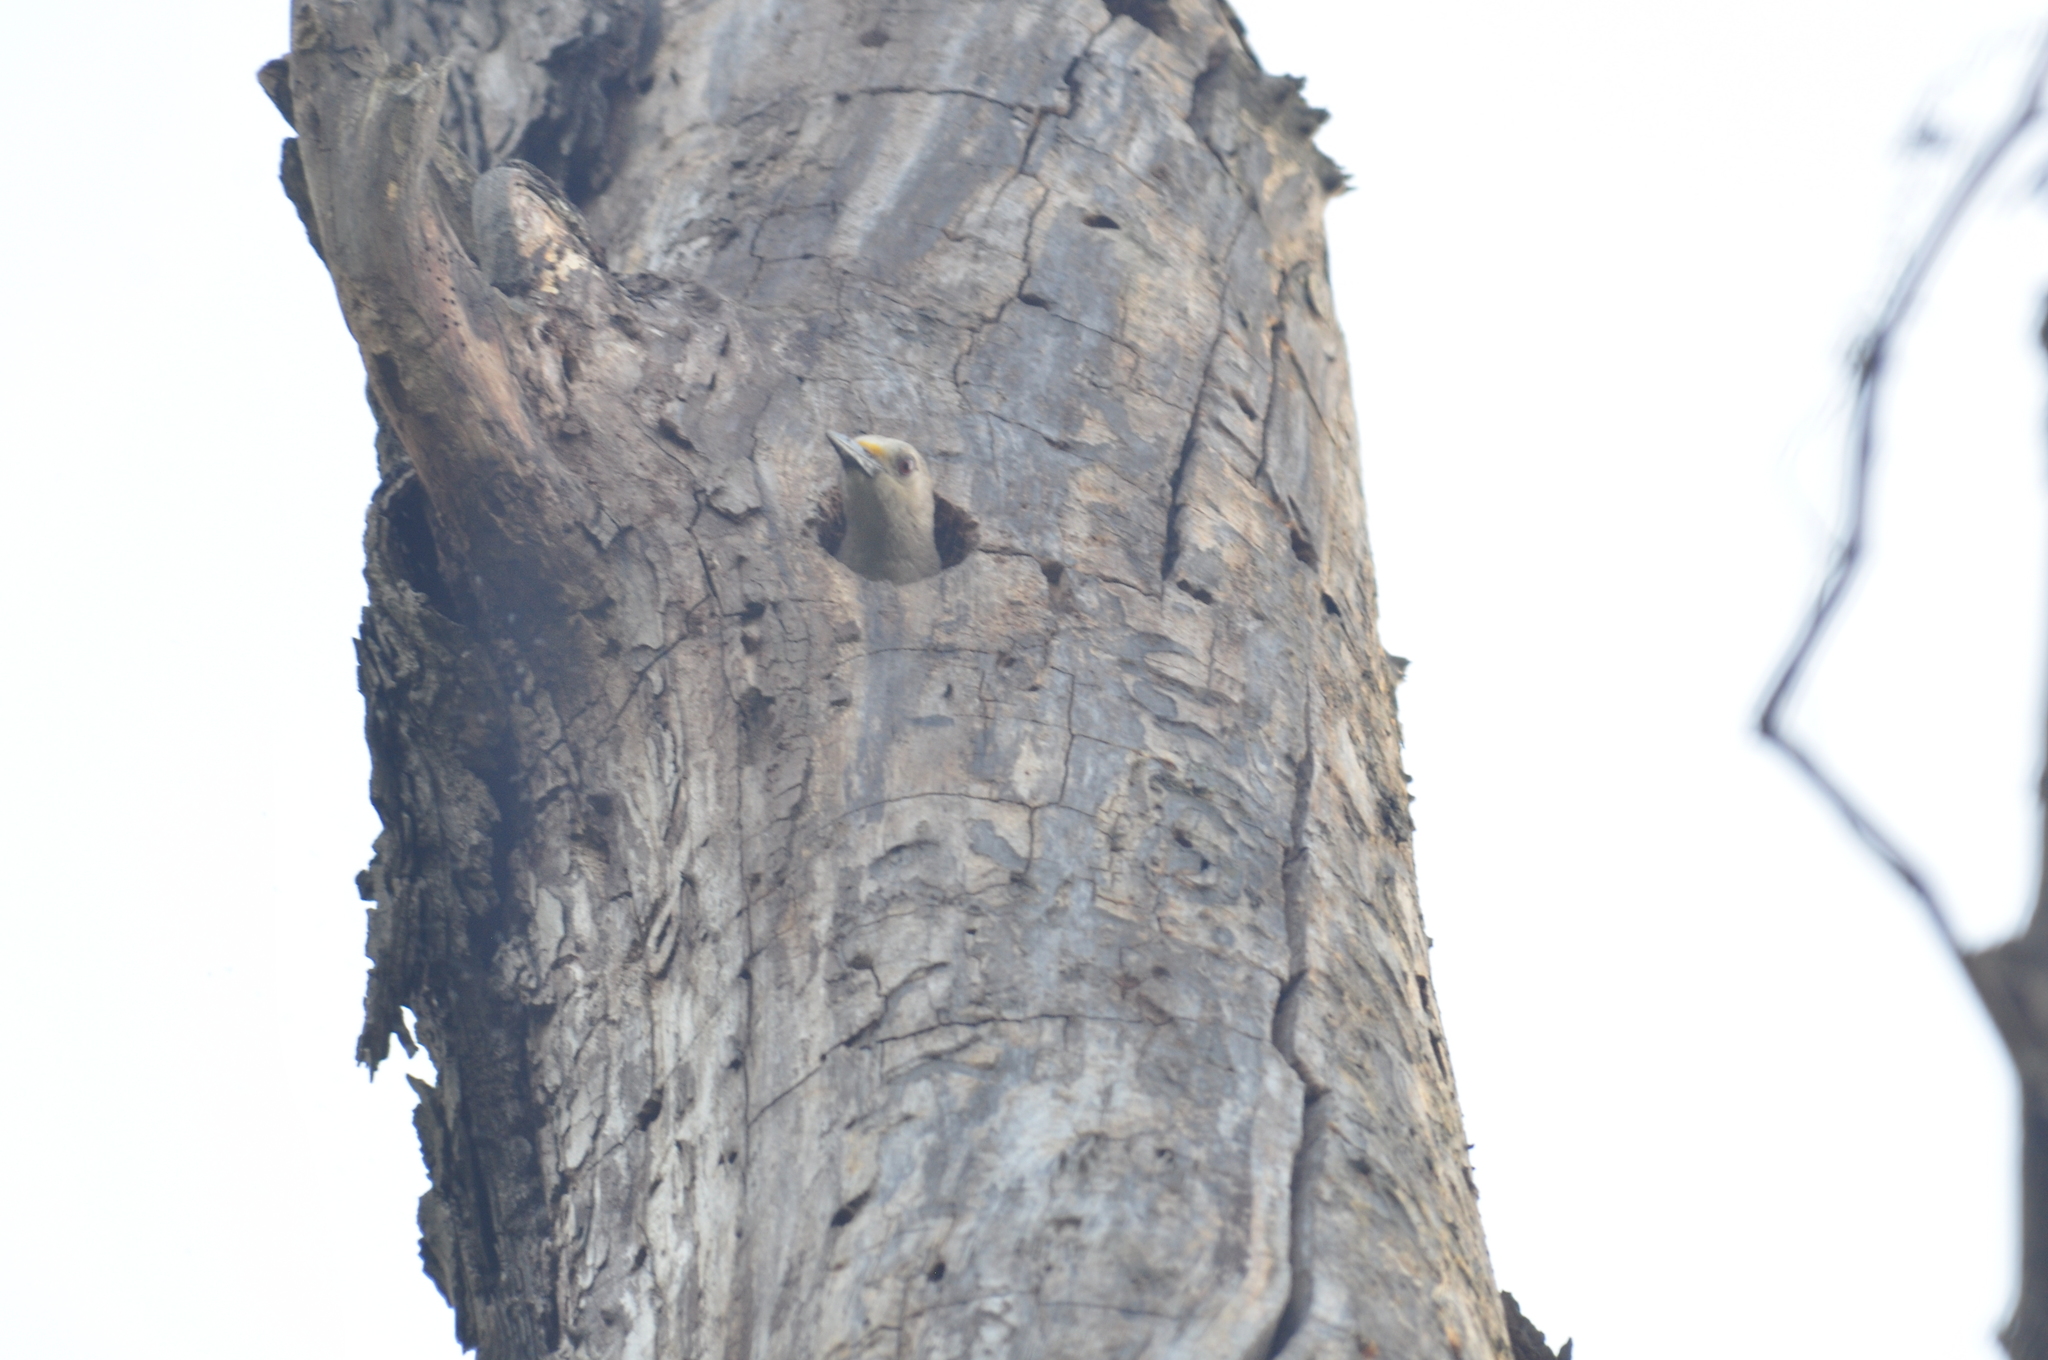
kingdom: Animalia
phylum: Chordata
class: Aves
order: Piciformes
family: Picidae
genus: Melanerpes
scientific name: Melanerpes aurifrons
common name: Golden-fronted woodpecker
